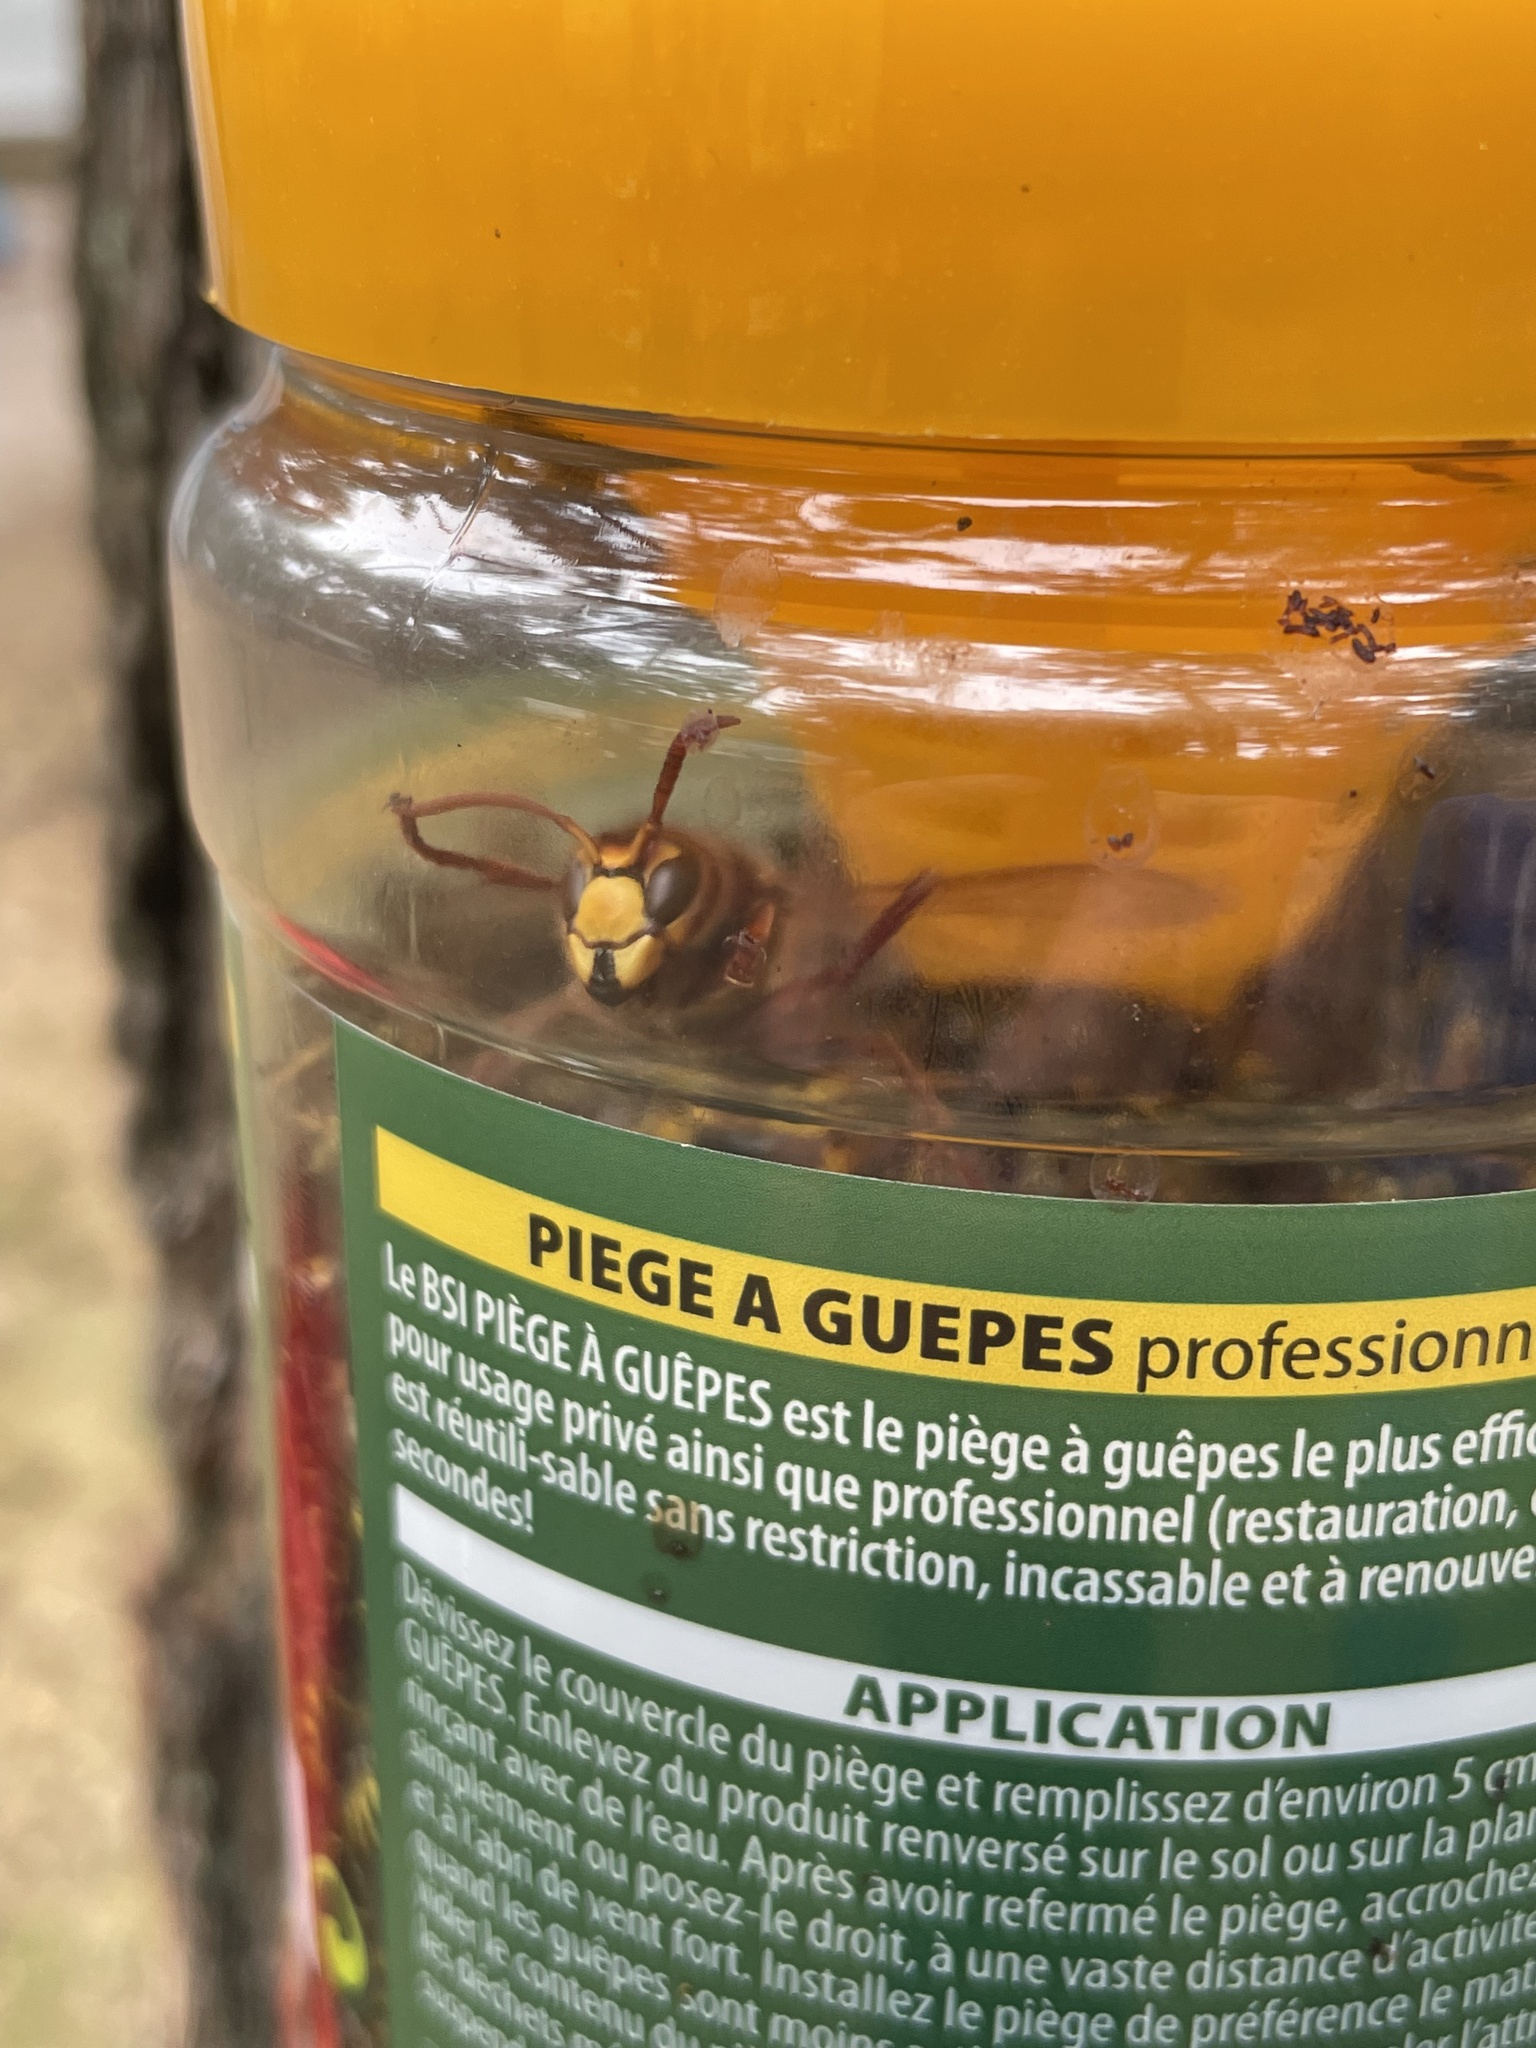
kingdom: Animalia
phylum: Arthropoda
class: Insecta
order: Hymenoptera
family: Vespidae
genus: Vespa
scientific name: Vespa crabro
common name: Hornet
